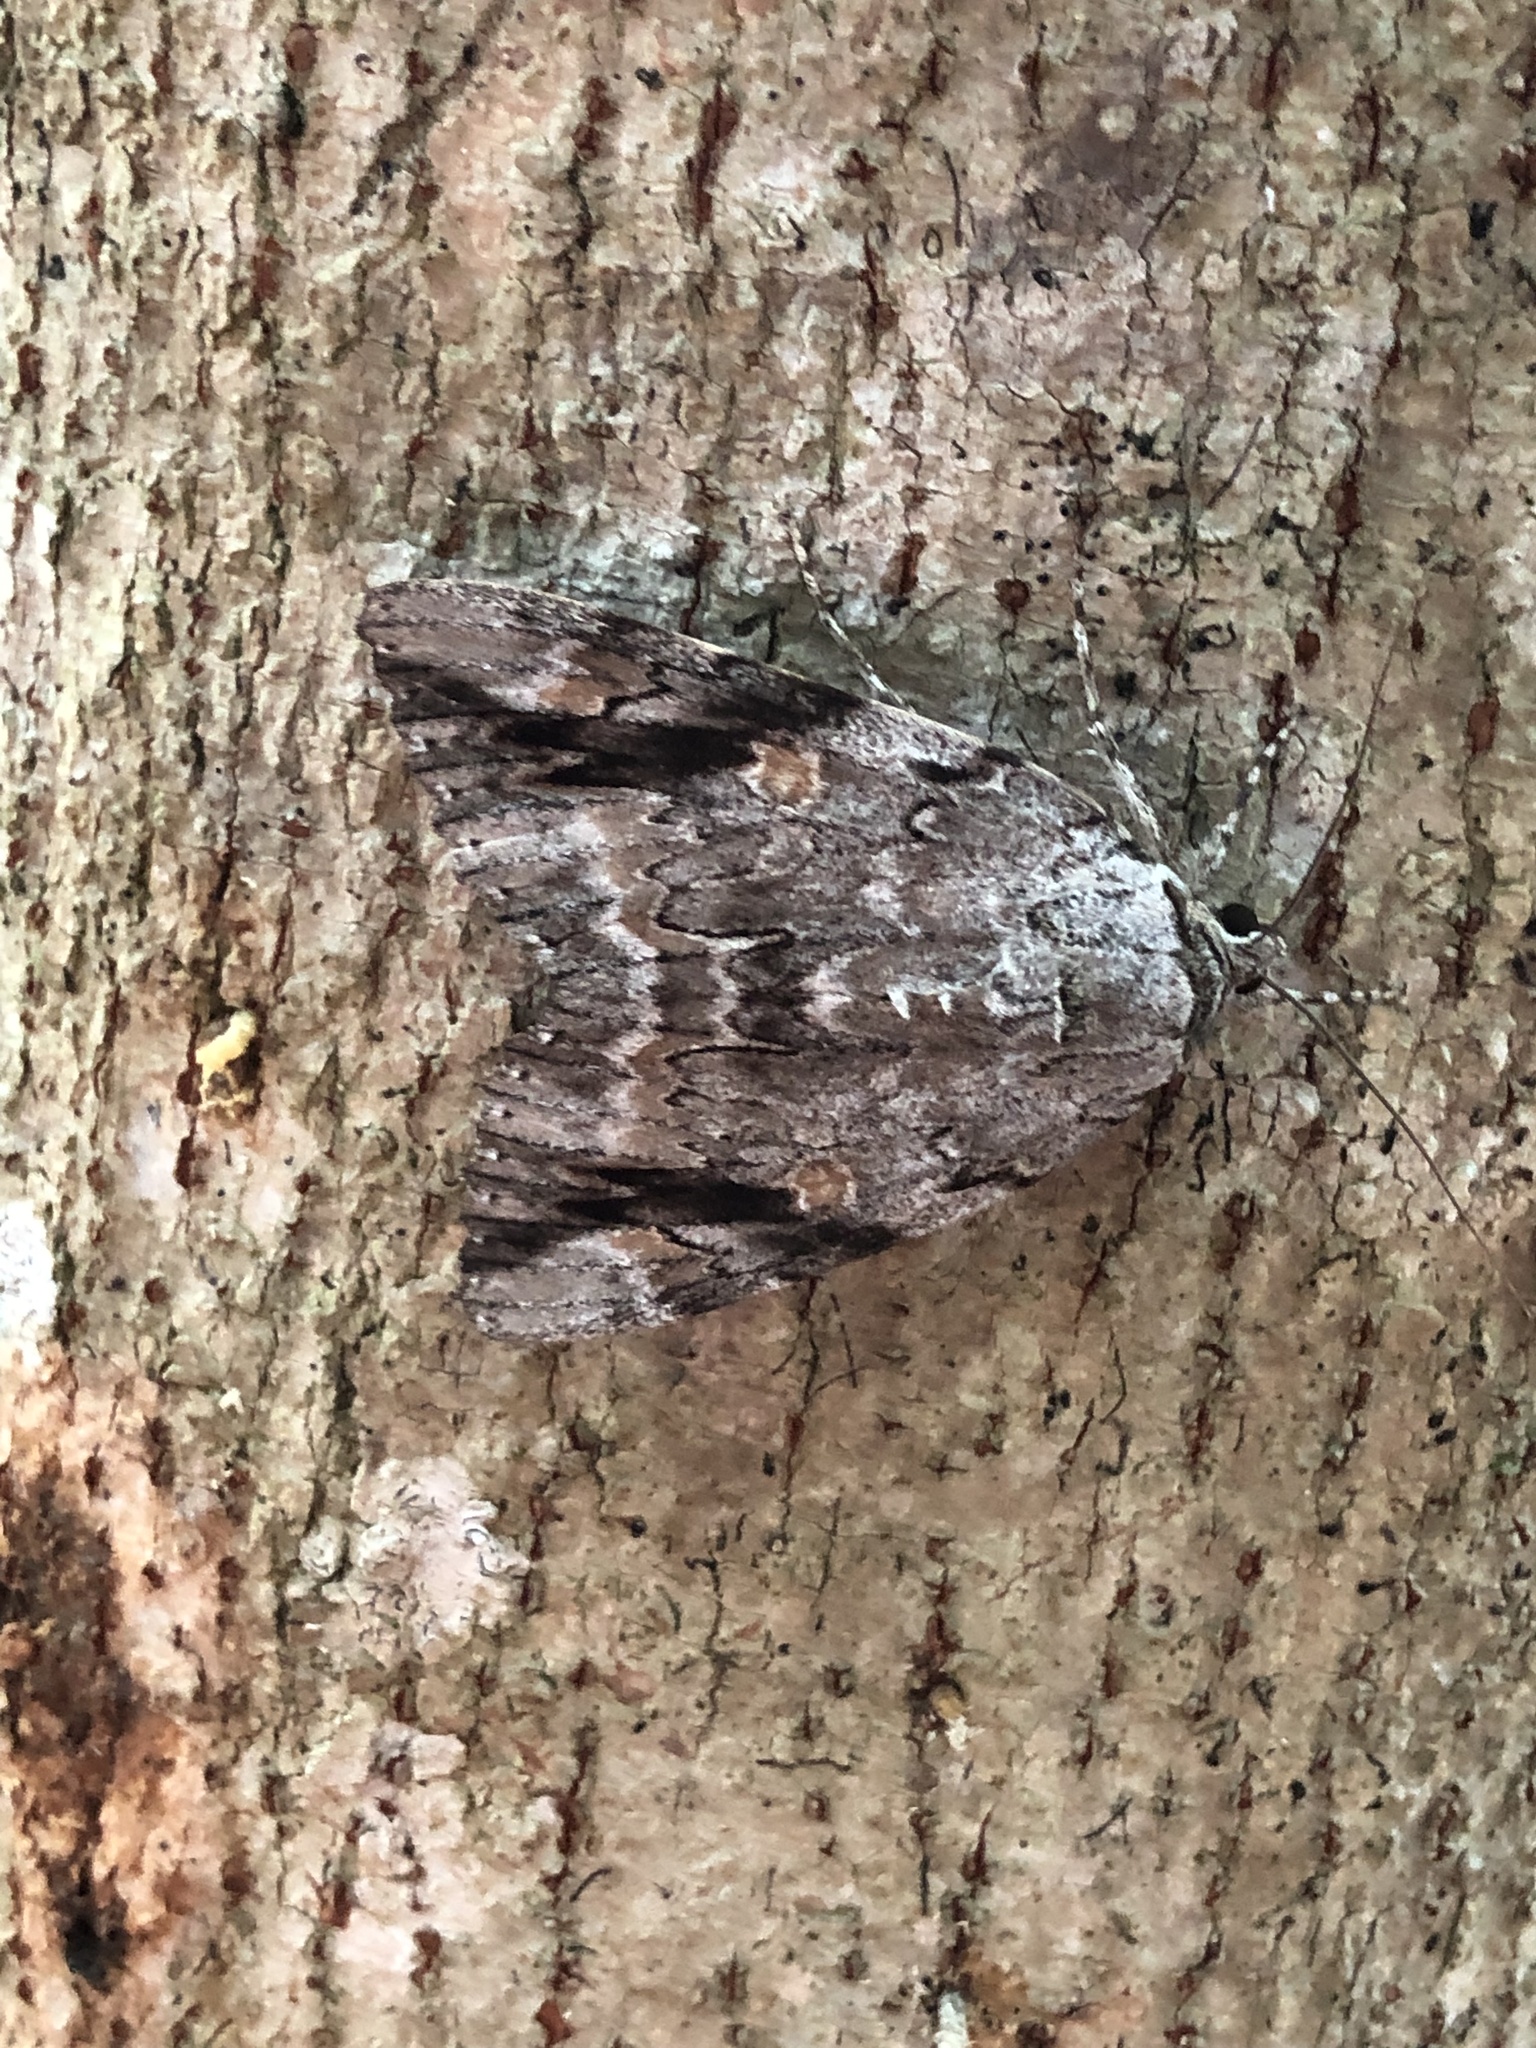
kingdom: Animalia
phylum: Arthropoda
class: Insecta
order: Lepidoptera
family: Erebidae
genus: Catocala
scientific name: Catocala maestosa
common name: Sad underwing
